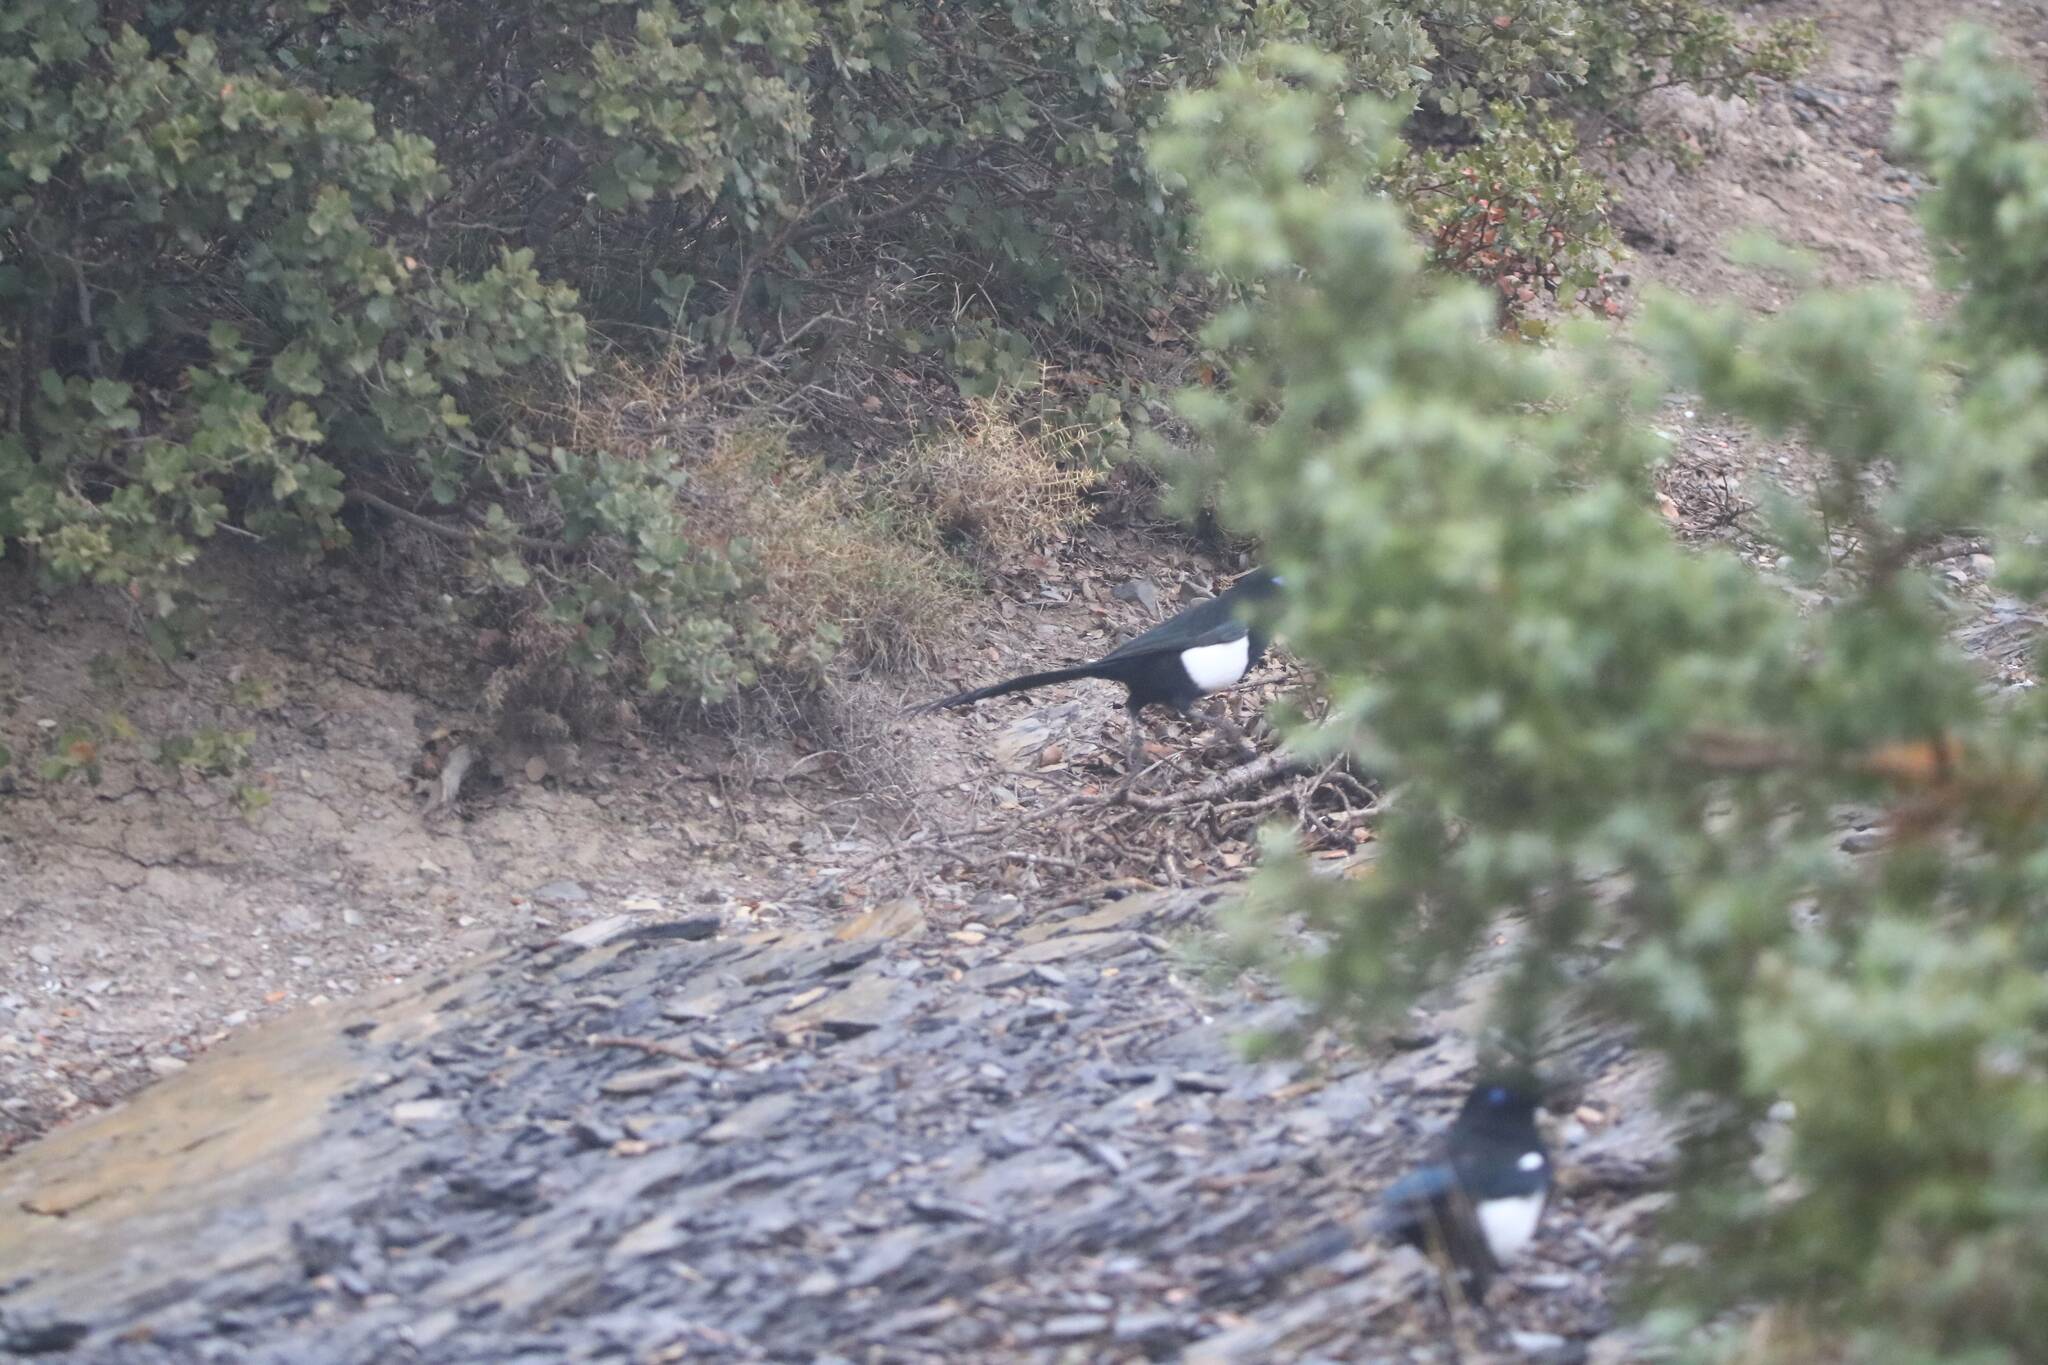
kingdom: Animalia
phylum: Chordata
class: Aves
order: Passeriformes
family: Corvidae
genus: Pica
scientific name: Pica mauritanica
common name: Maghreb magpie
